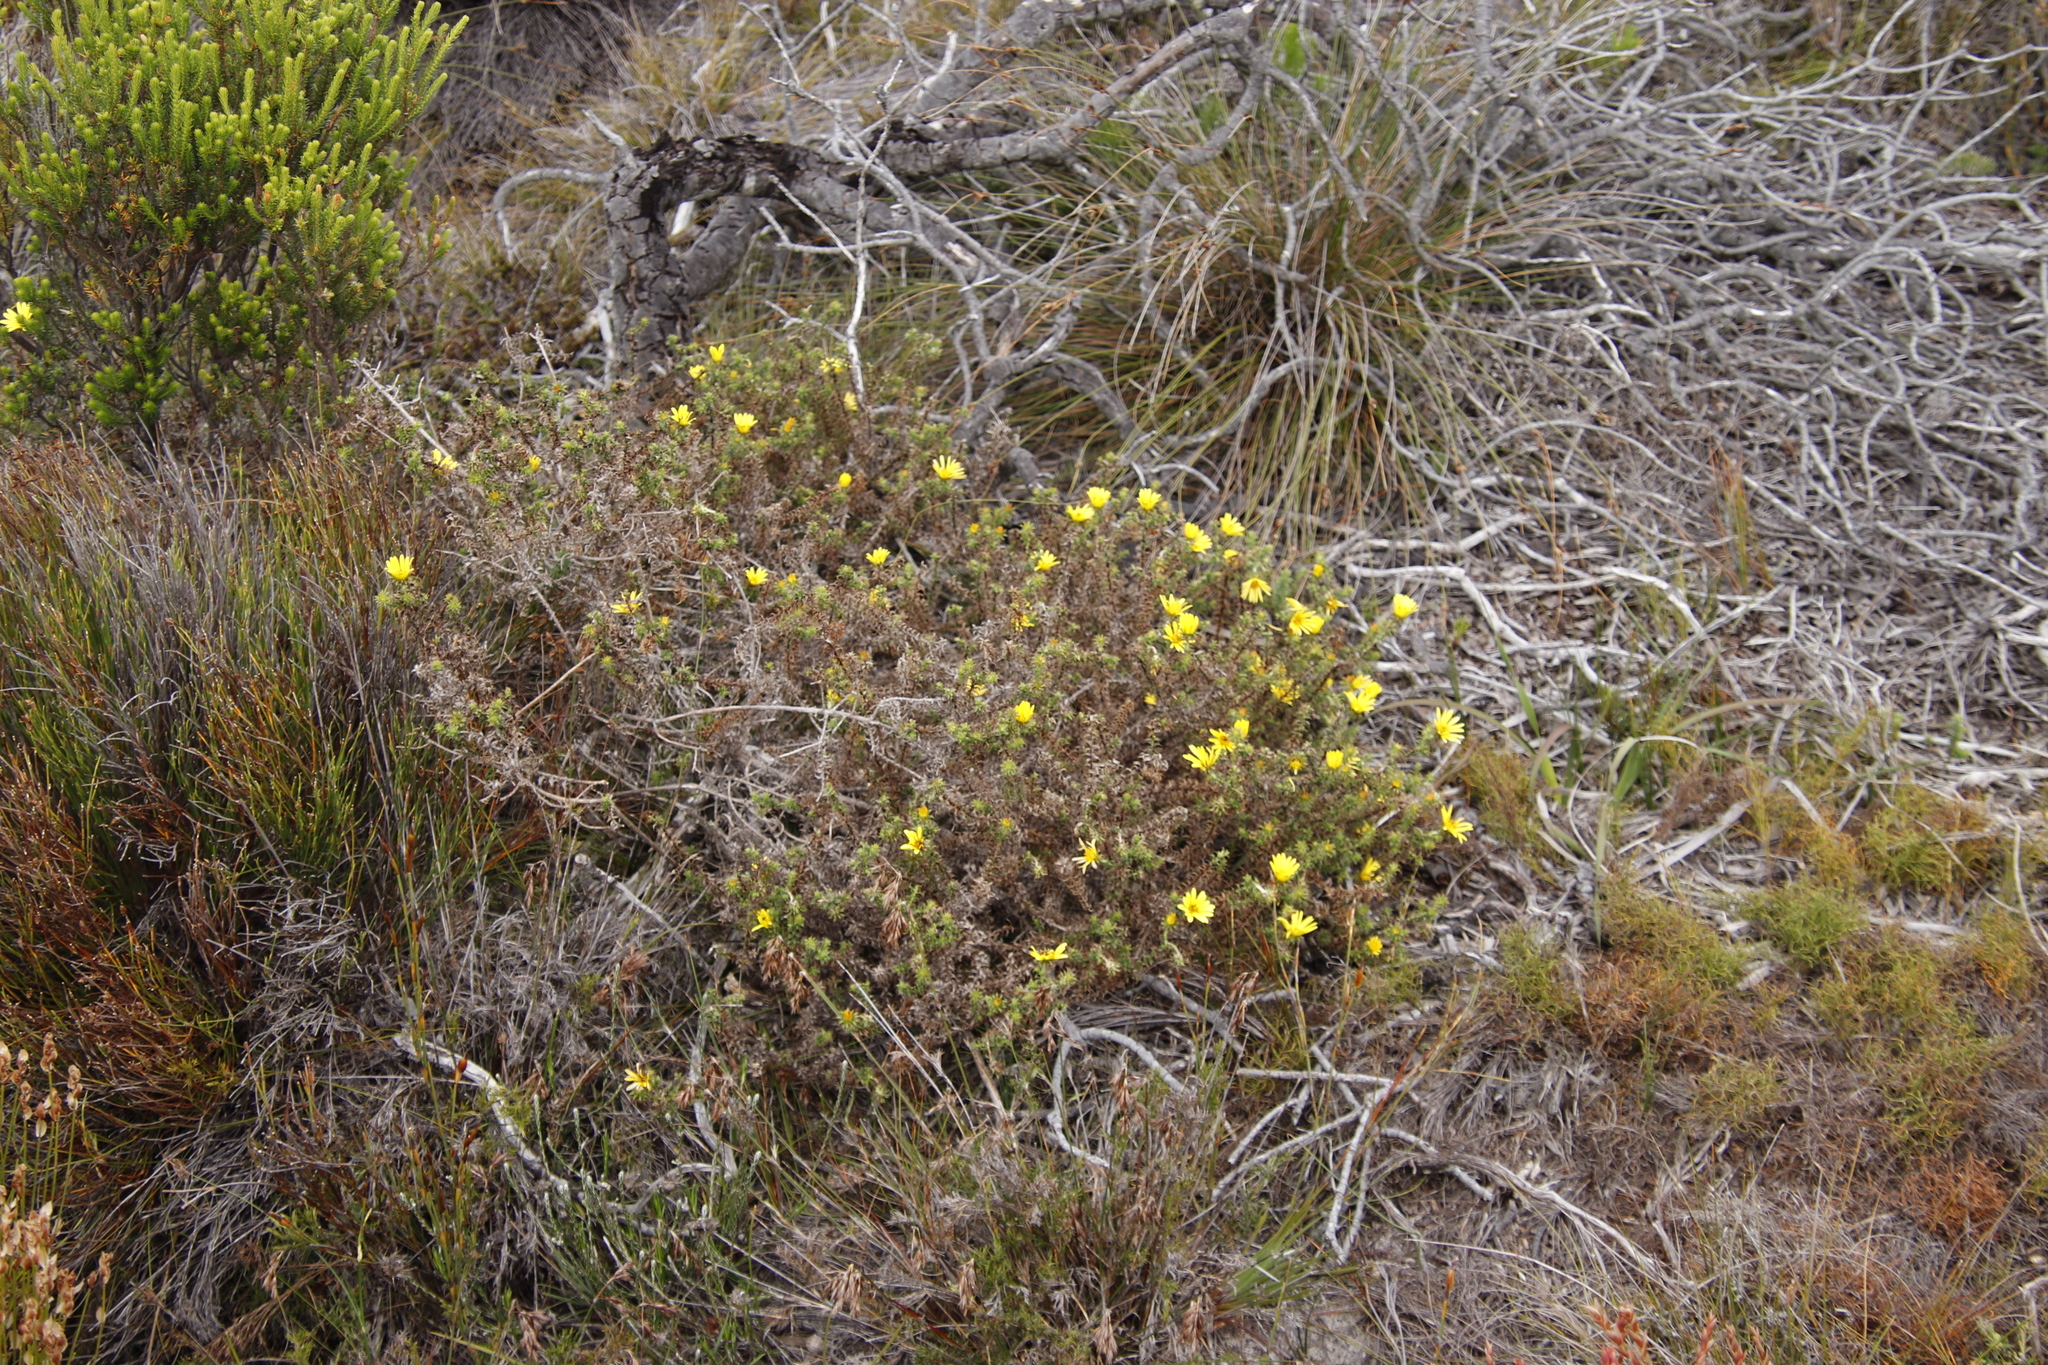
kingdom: Plantae
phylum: Tracheophyta
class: Magnoliopsida
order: Asterales
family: Asteraceae
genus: Cullumia
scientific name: Cullumia setosa
